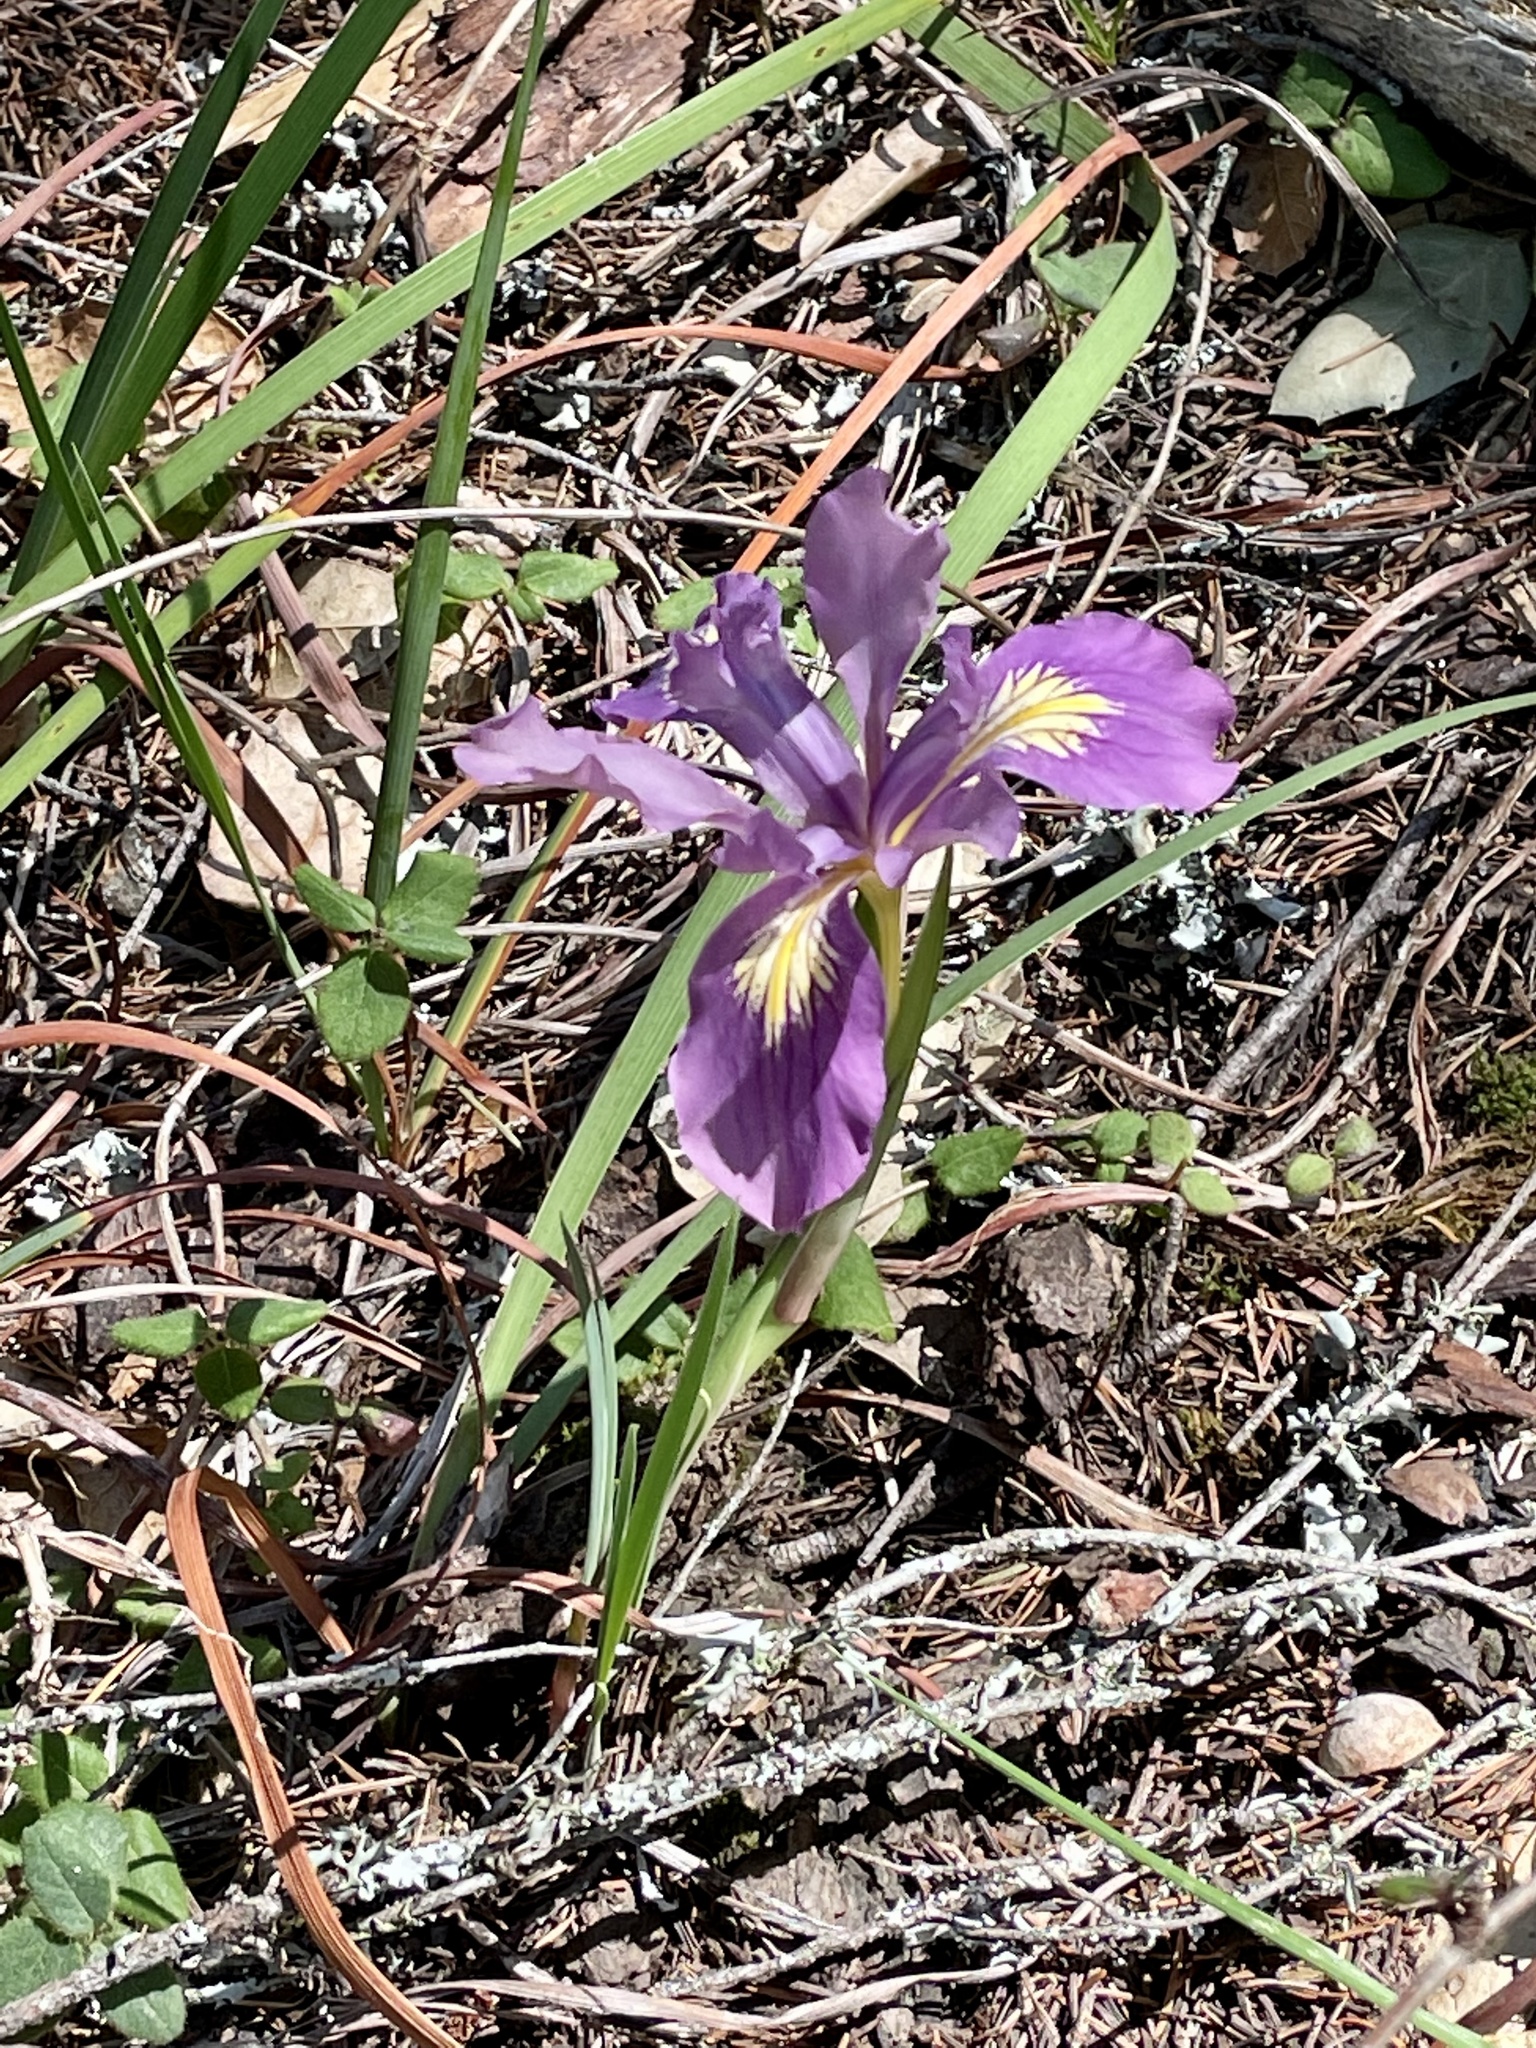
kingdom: Plantae
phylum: Tracheophyta
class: Liliopsida
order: Asparagales
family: Iridaceae
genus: Iris
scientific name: Iris douglasiana
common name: Marin iris
